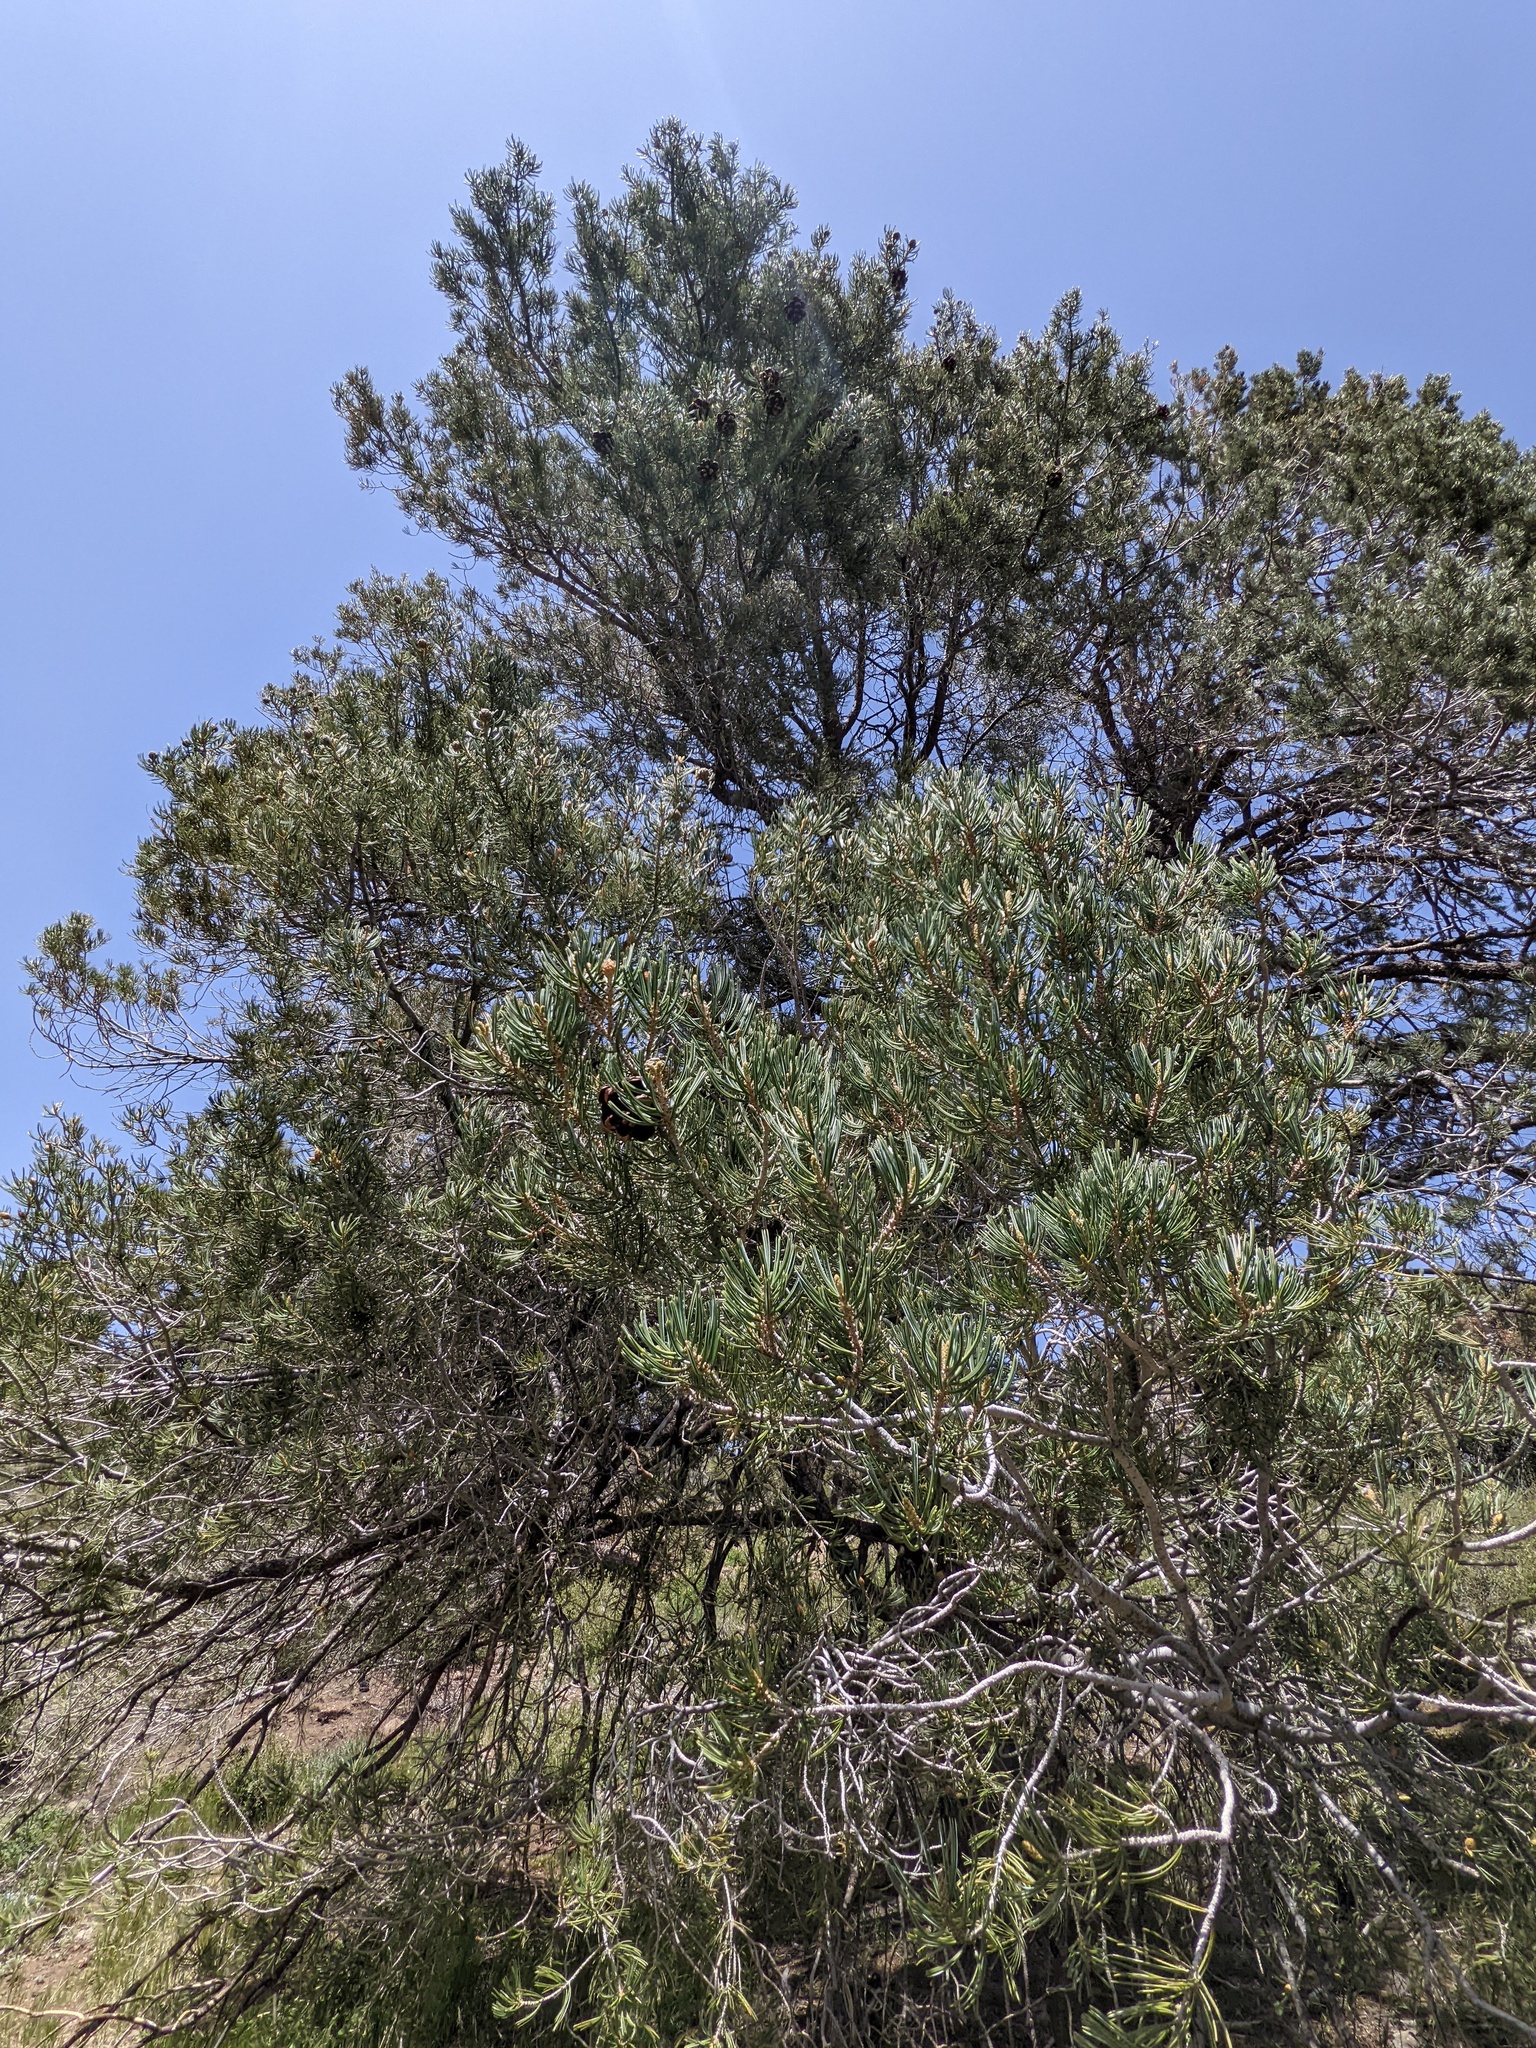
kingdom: Plantae
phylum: Tracheophyta
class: Pinopsida
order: Pinales
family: Pinaceae
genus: Pinus
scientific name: Pinus quadrifolia
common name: Parry pinyon
